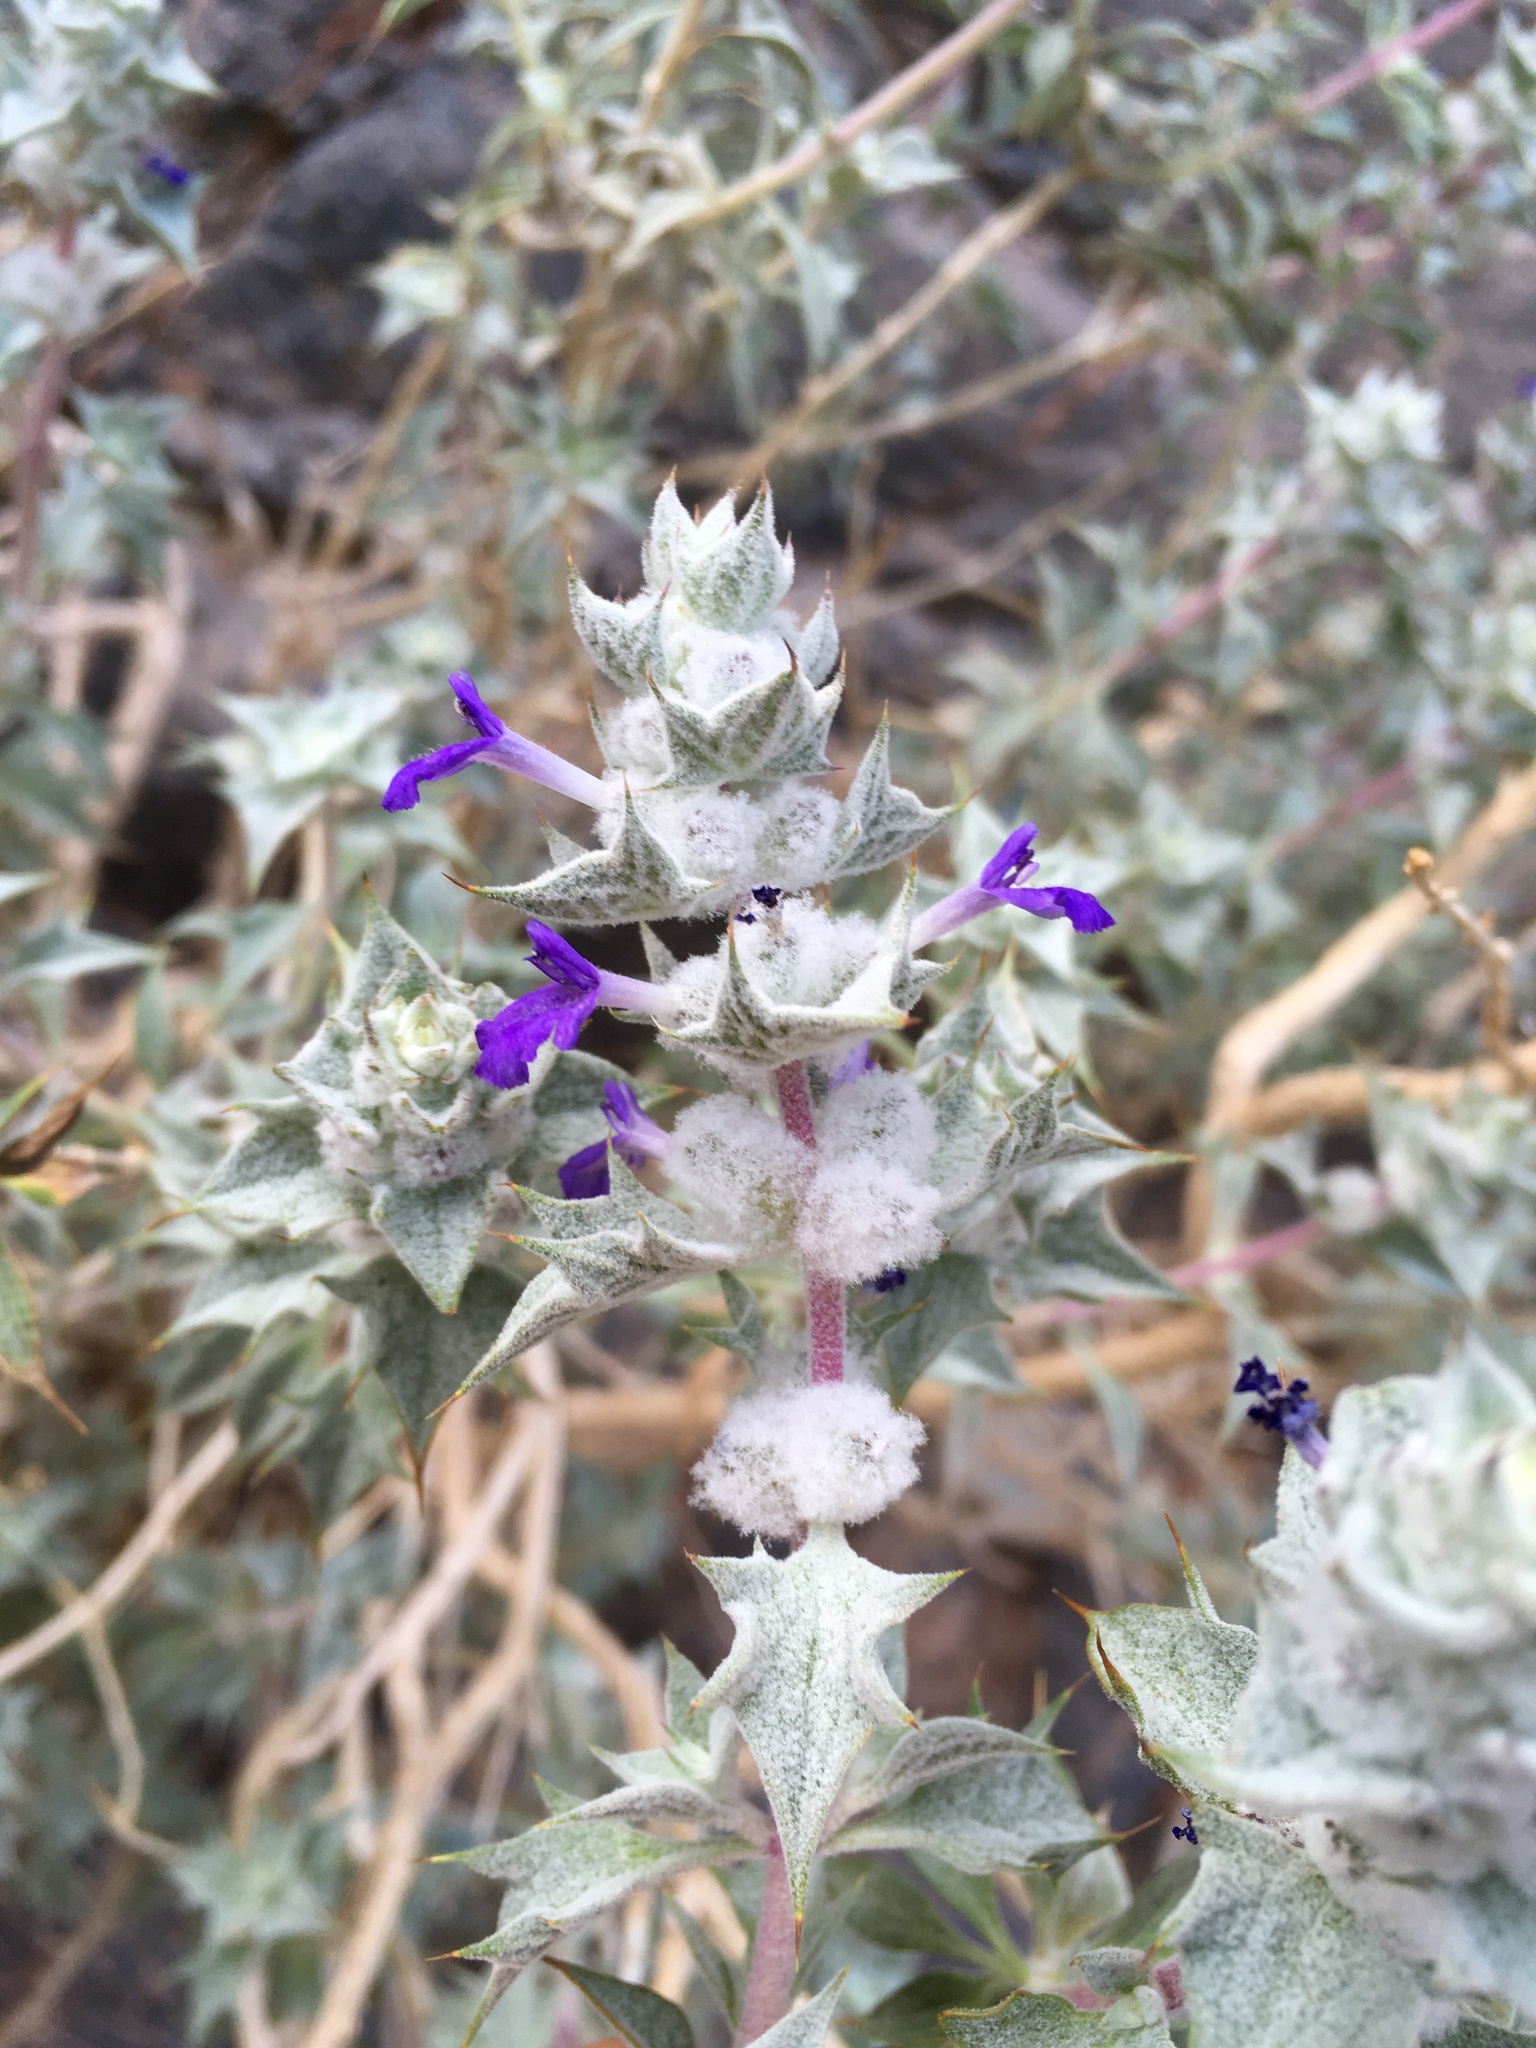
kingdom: Plantae
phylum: Tracheophyta
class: Magnoliopsida
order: Lamiales
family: Lamiaceae
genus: Salvia
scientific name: Salvia funerea
